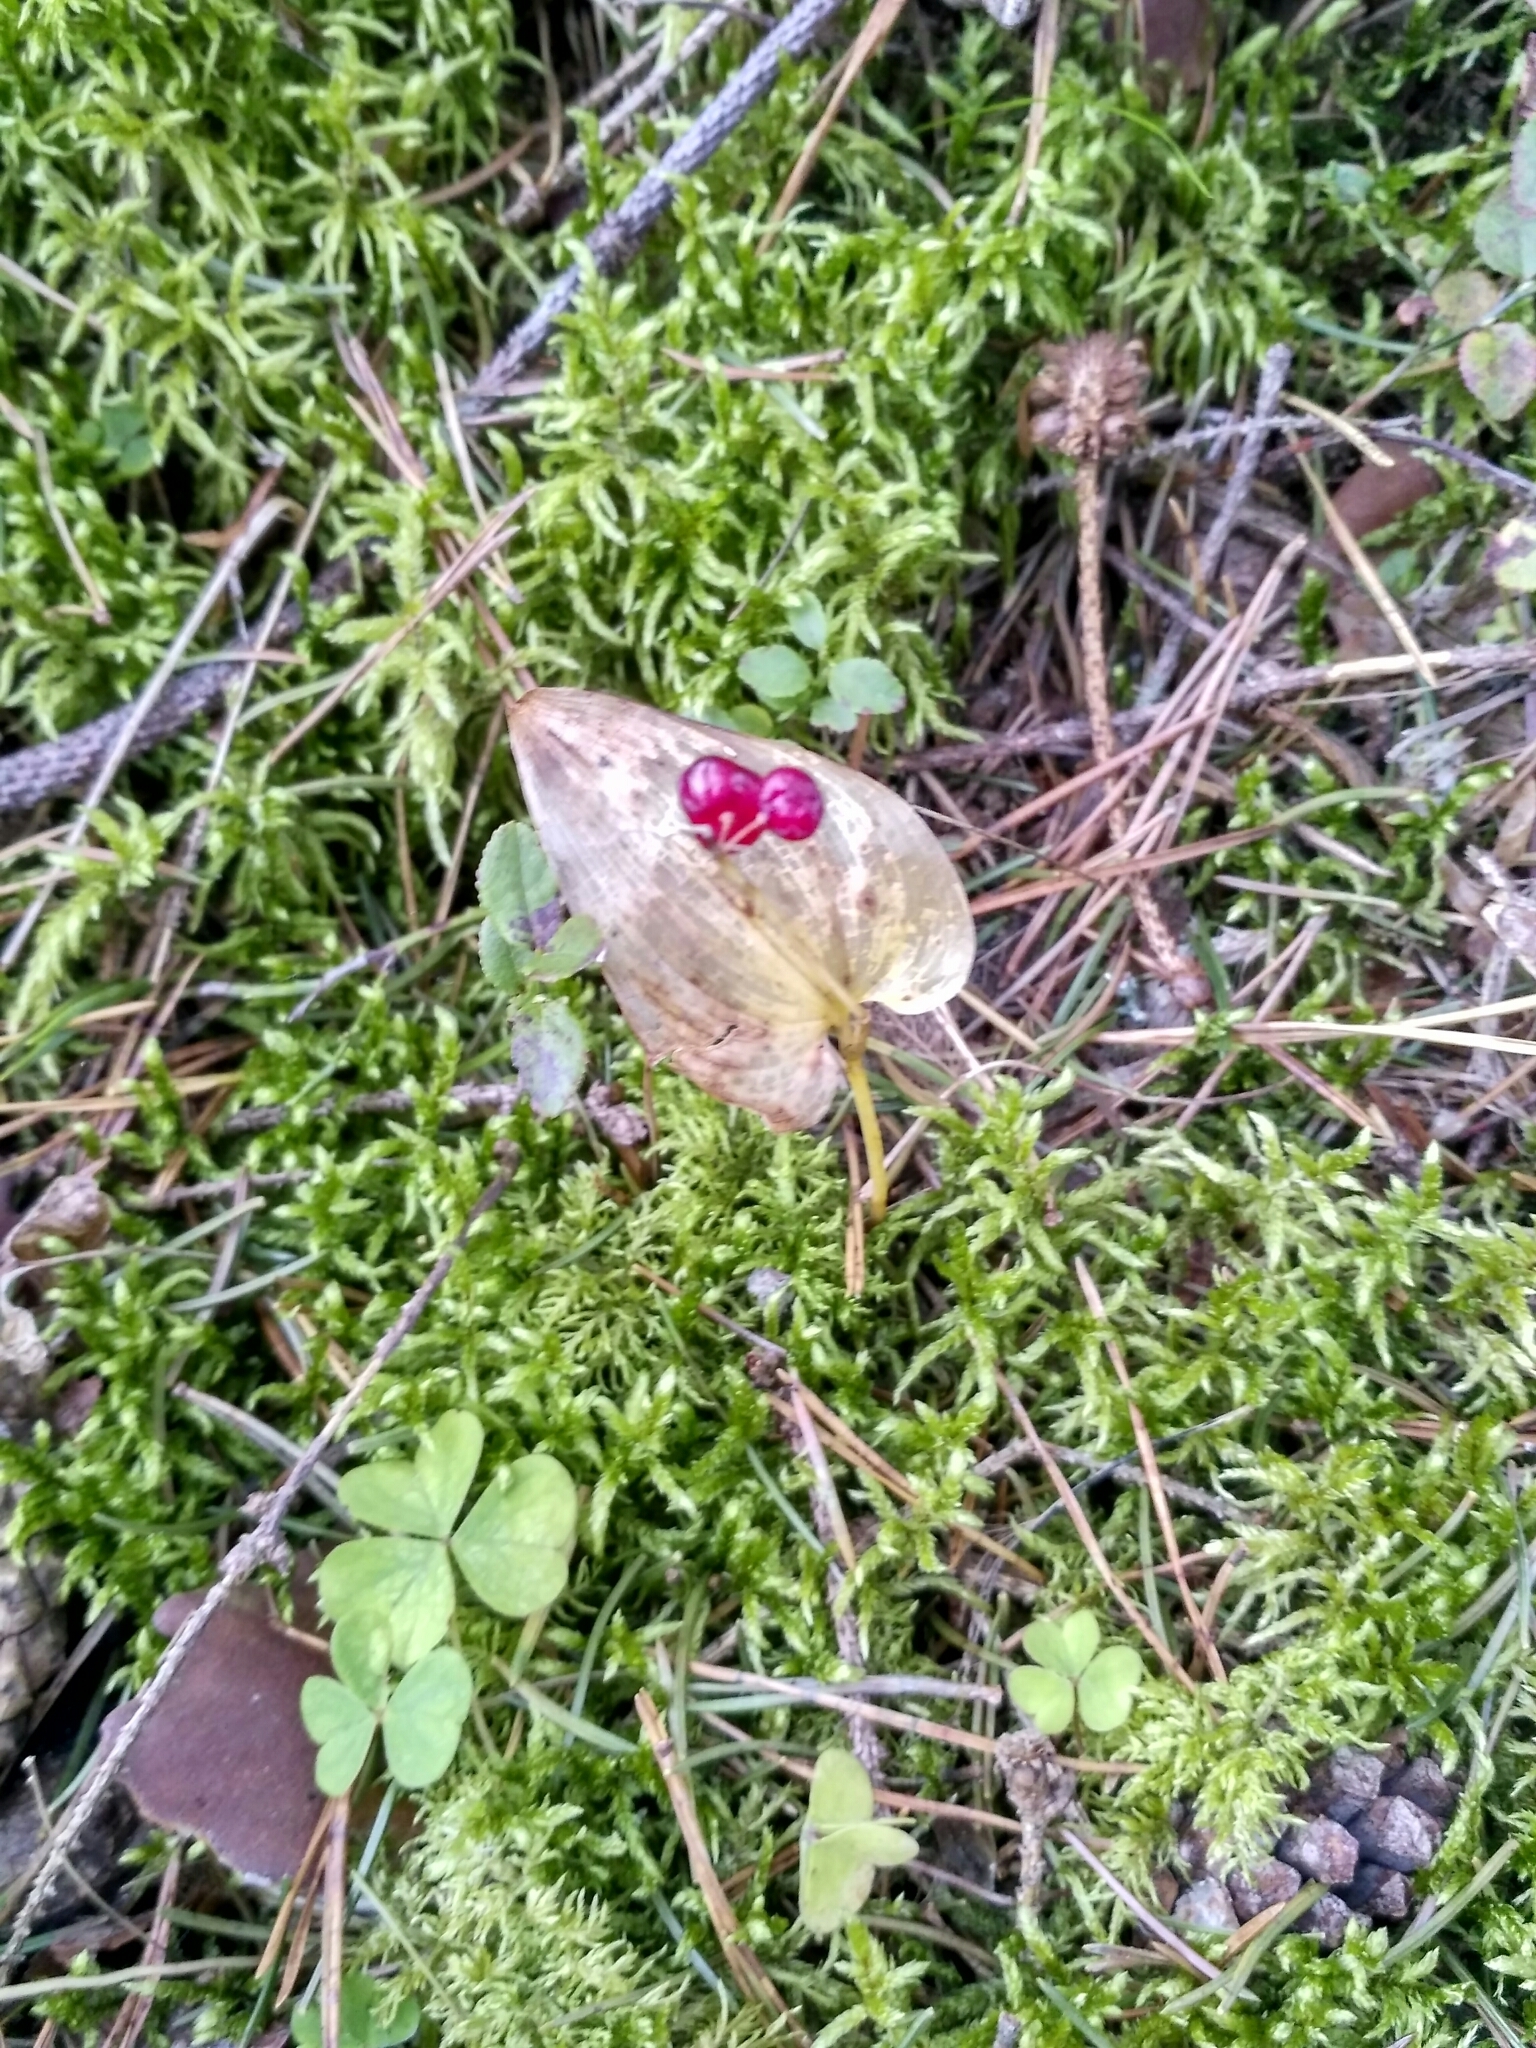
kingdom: Plantae
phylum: Tracheophyta
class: Liliopsida
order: Asparagales
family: Asparagaceae
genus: Maianthemum
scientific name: Maianthemum bifolium
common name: May lily
